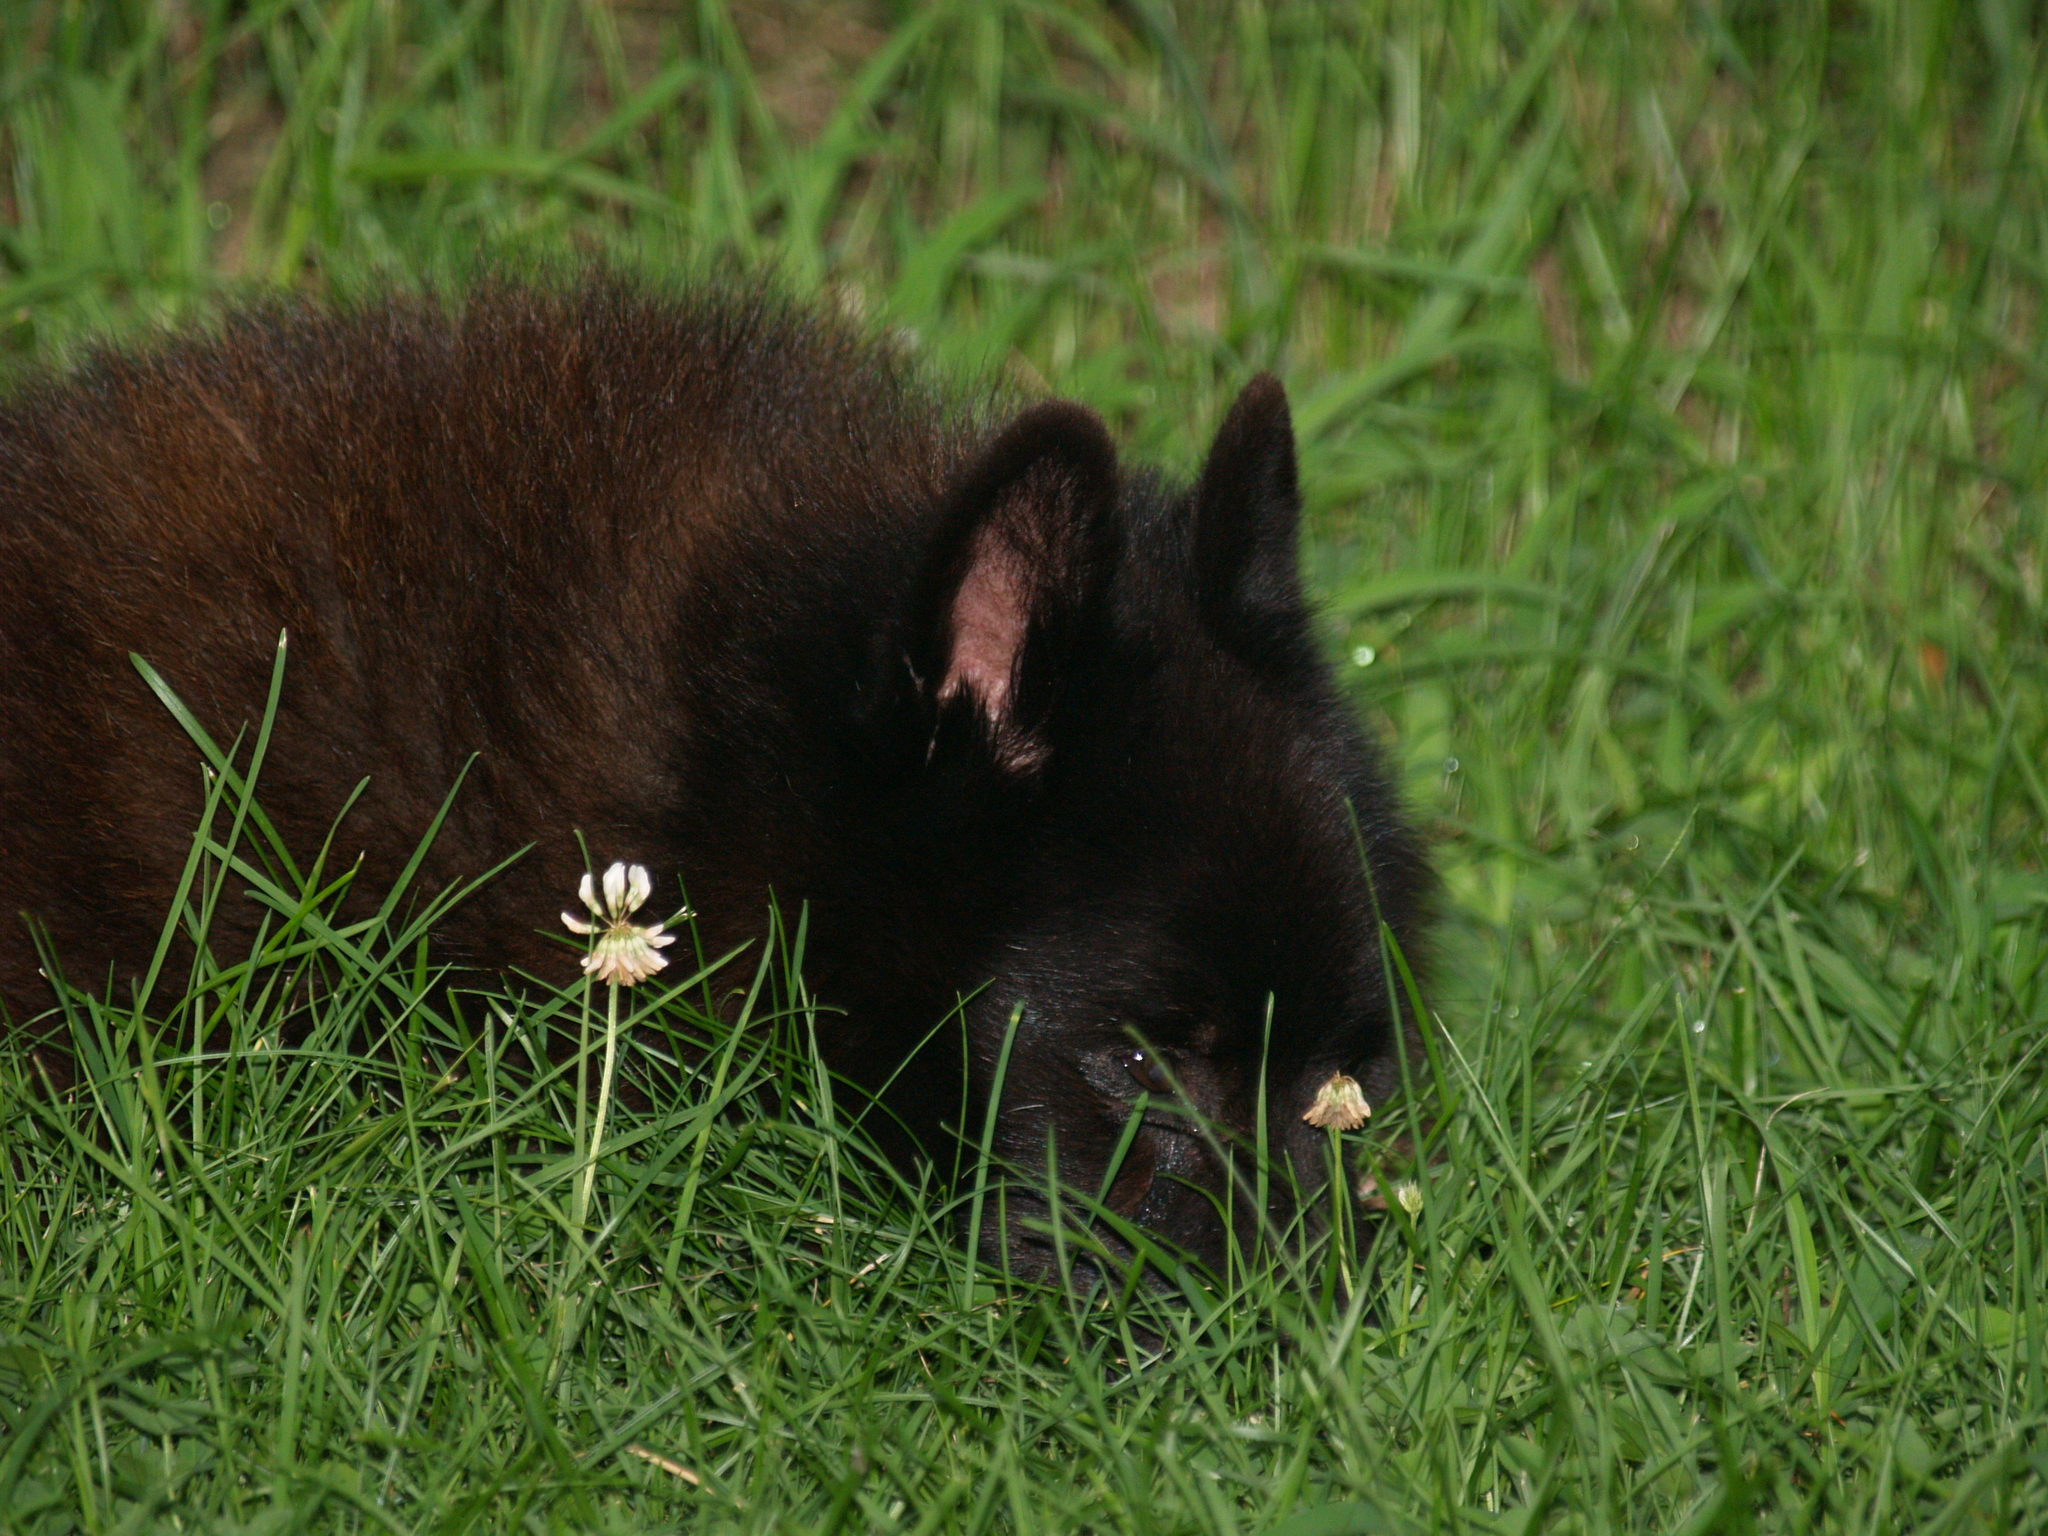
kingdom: Plantae
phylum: Tracheophyta
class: Magnoliopsida
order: Fabales
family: Fabaceae
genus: Trifolium
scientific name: Trifolium repens
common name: White clover
